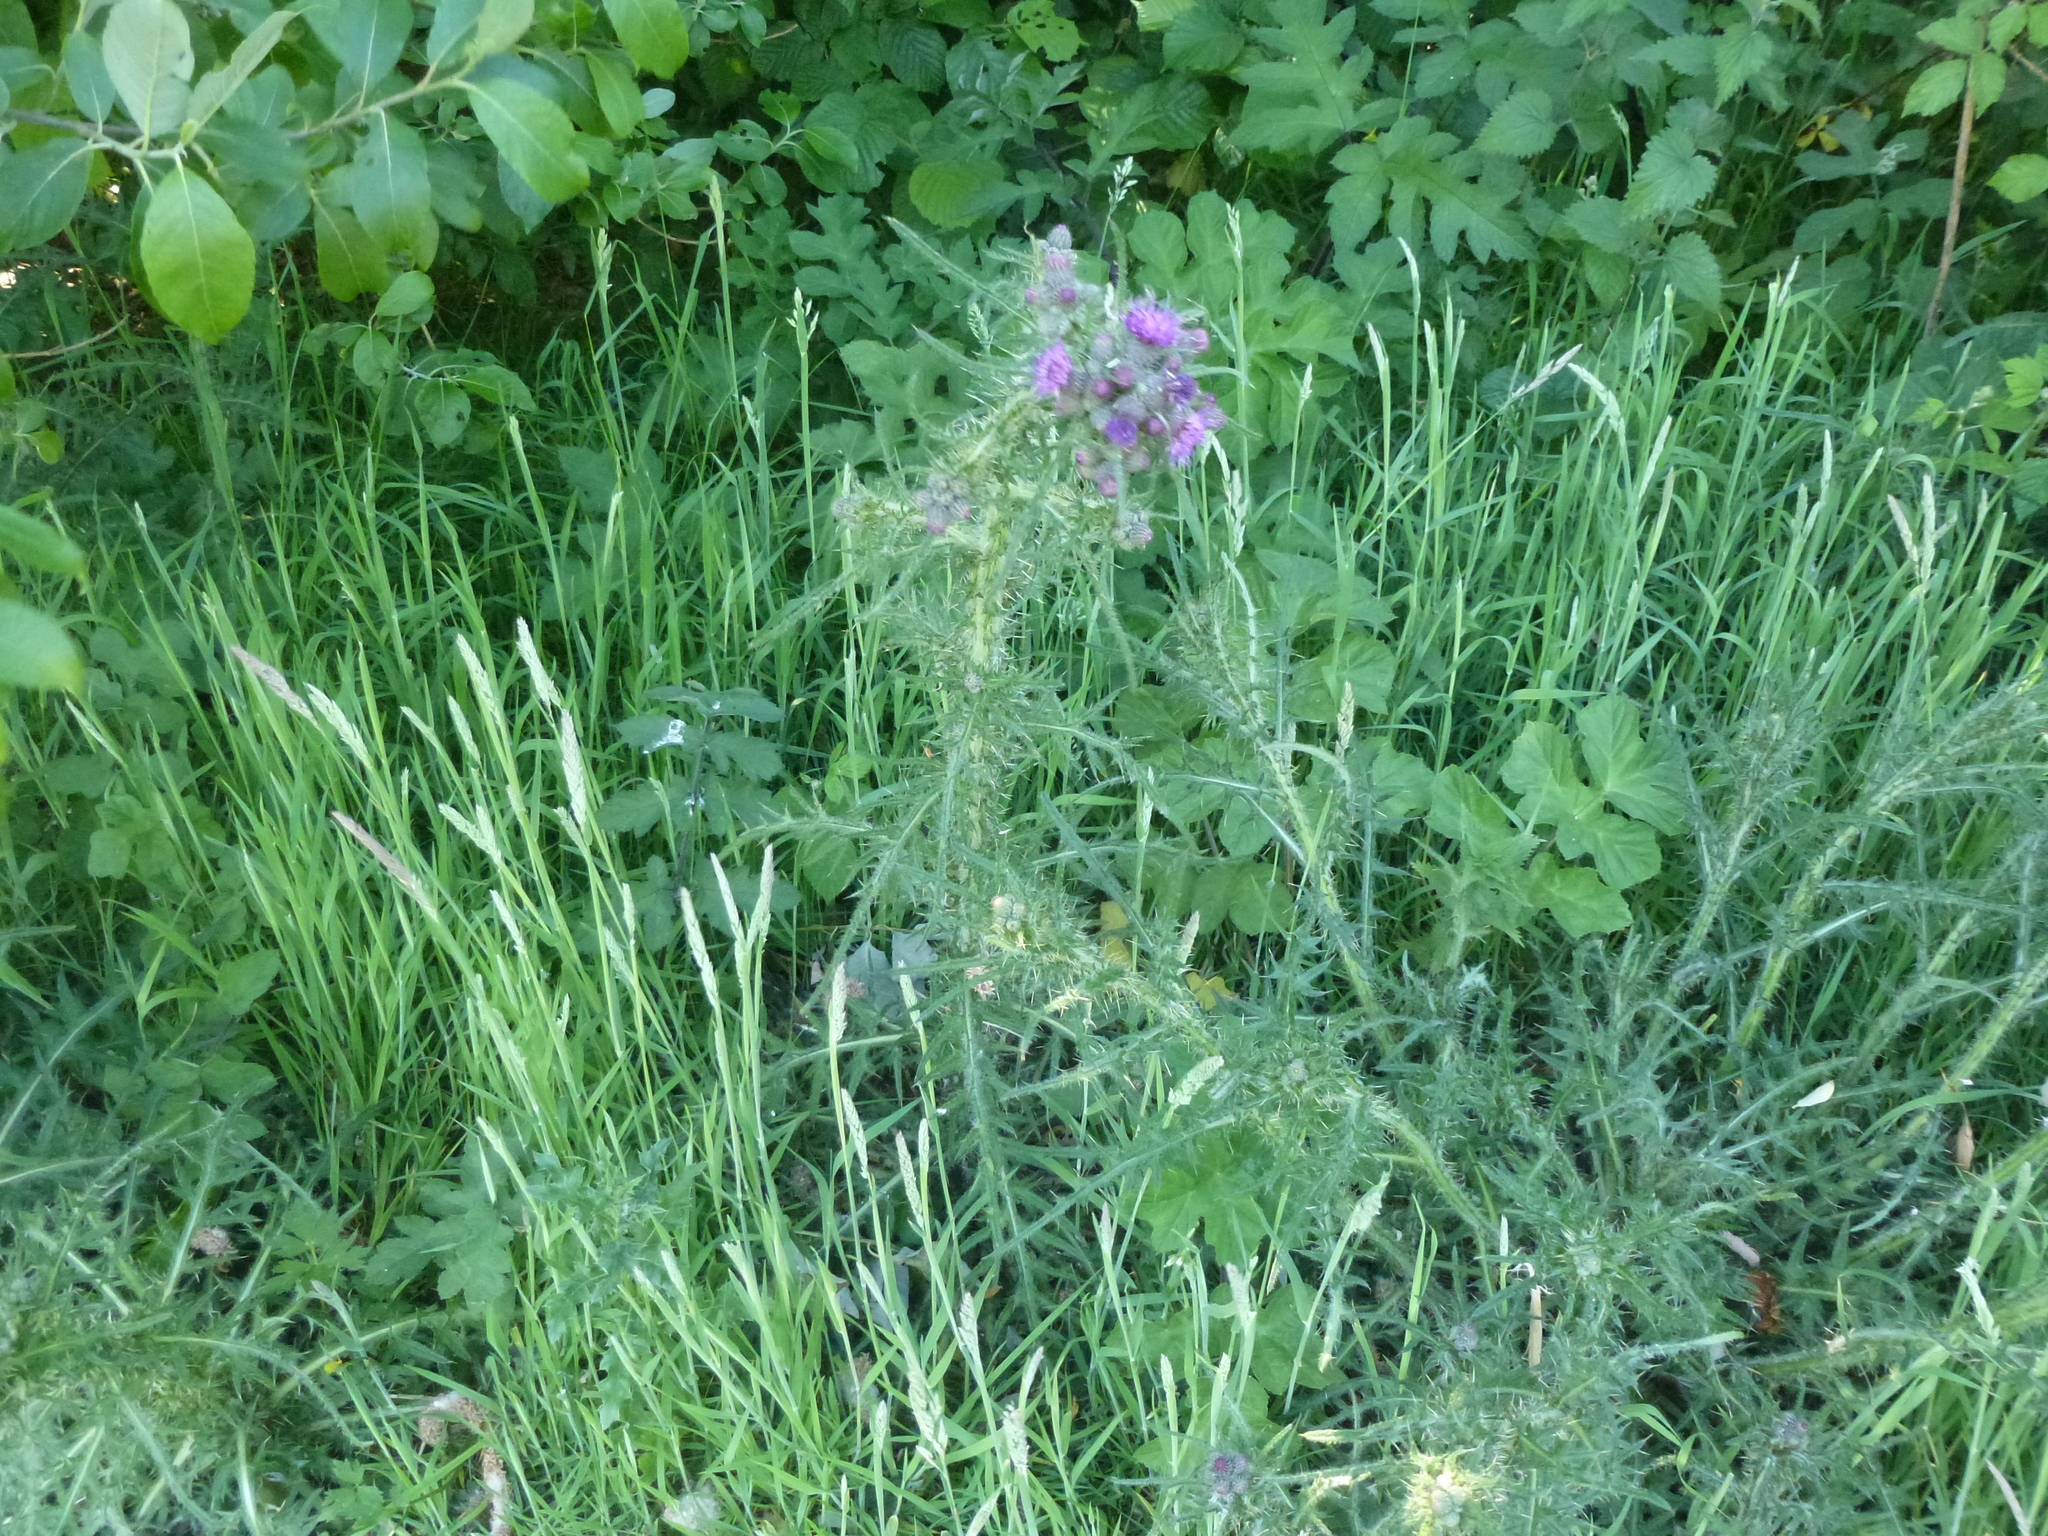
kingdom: Plantae
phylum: Tracheophyta
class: Magnoliopsida
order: Asterales
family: Asteraceae
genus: Cirsium
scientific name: Cirsium palustre
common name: Marsh thistle
